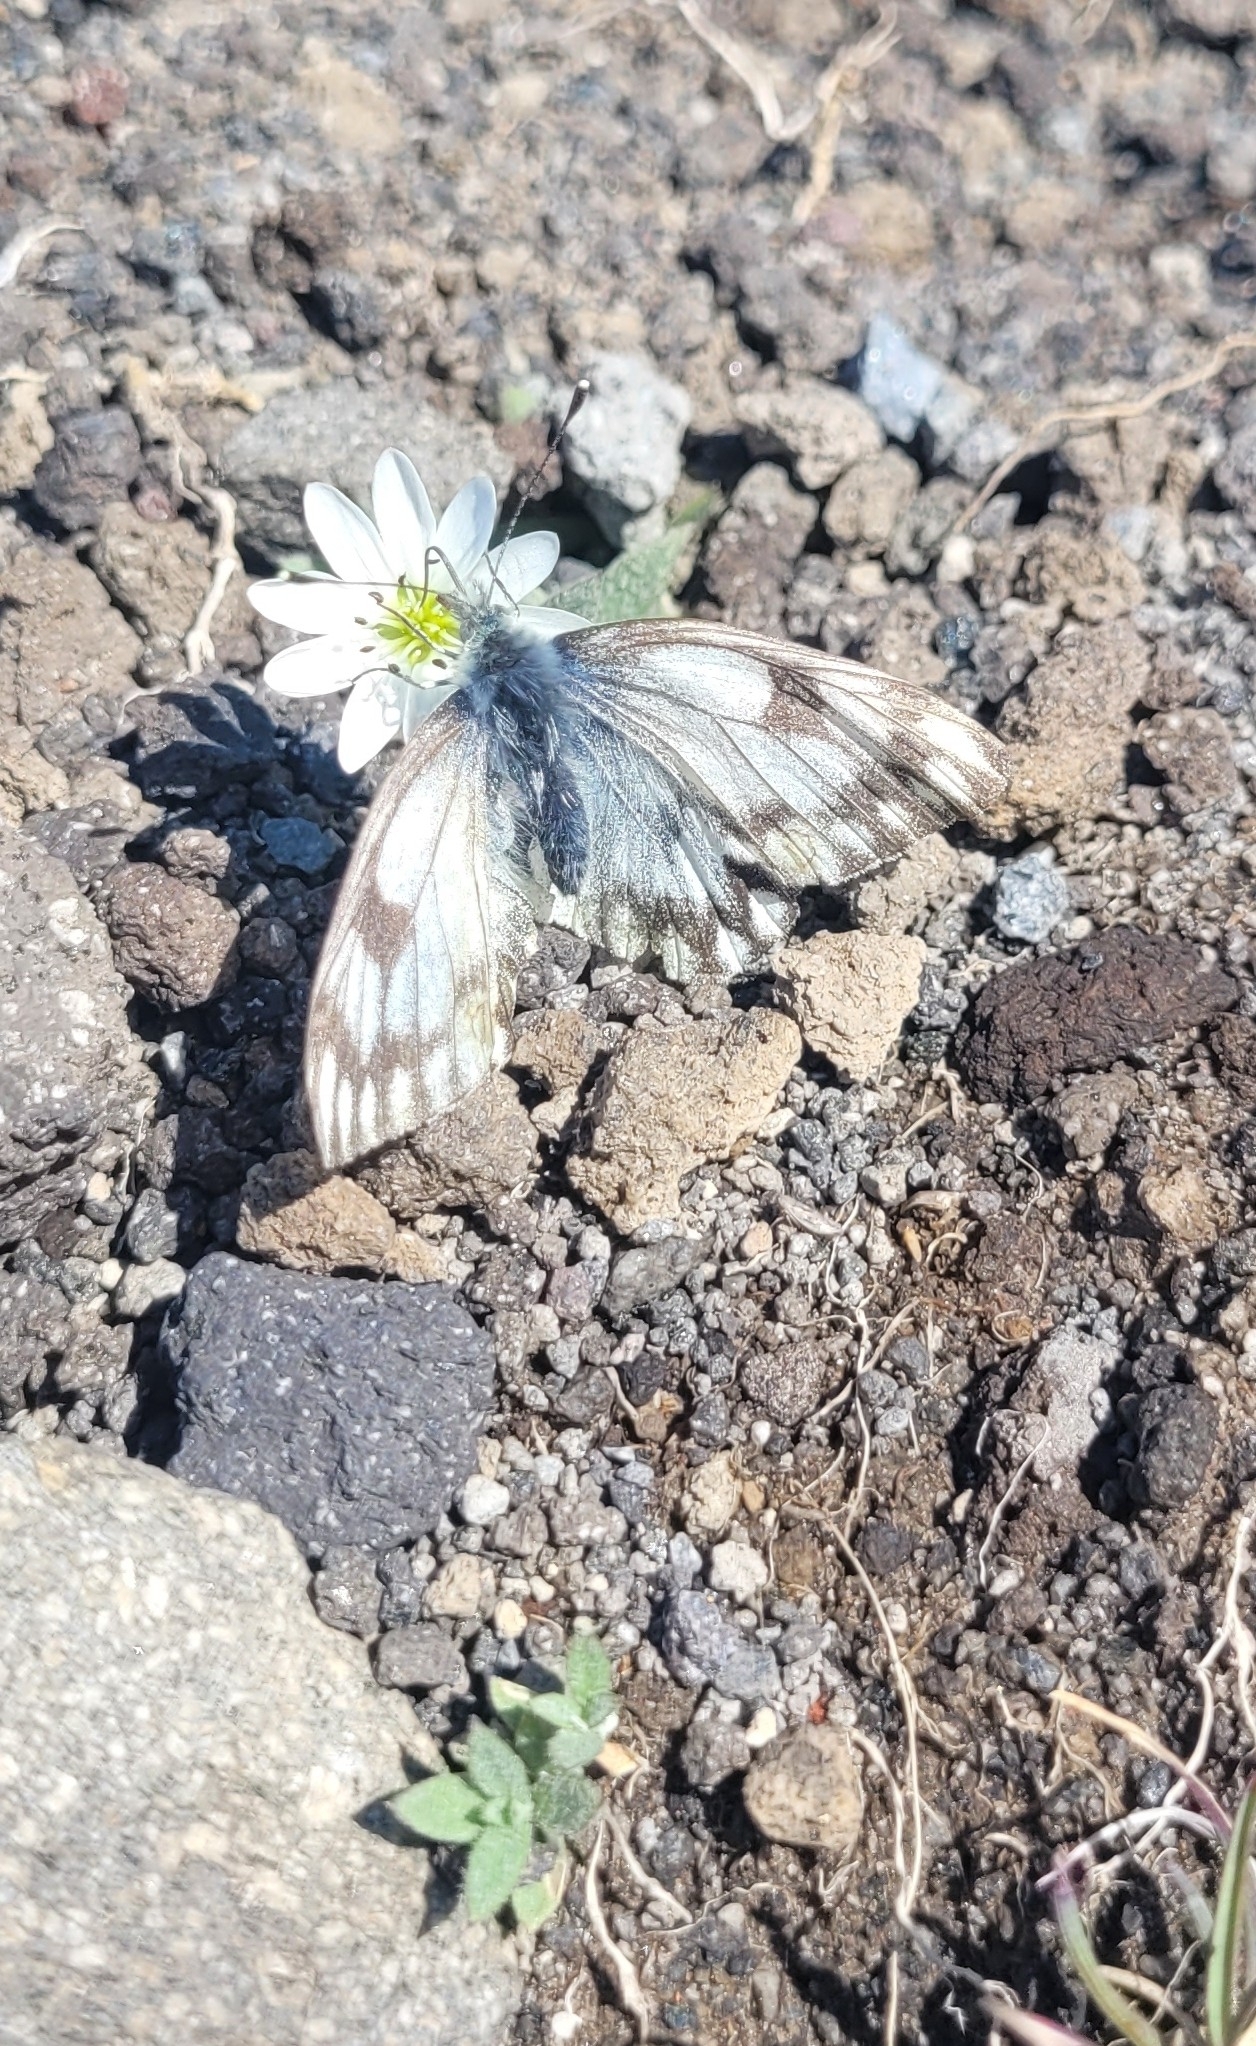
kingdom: Animalia
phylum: Arthropoda
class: Insecta
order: Lepidoptera
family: Pieridae
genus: Pontia
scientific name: Pontia callidice
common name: Peak white
